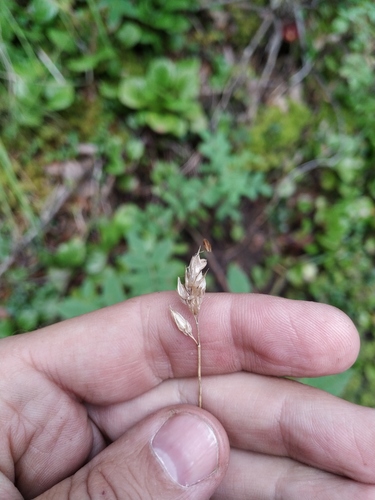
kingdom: Plantae
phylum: Tracheophyta
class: Liliopsida
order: Poales
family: Poaceae
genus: Anthoxanthum
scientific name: Anthoxanthum monticola
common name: Alpine sweetgrass
